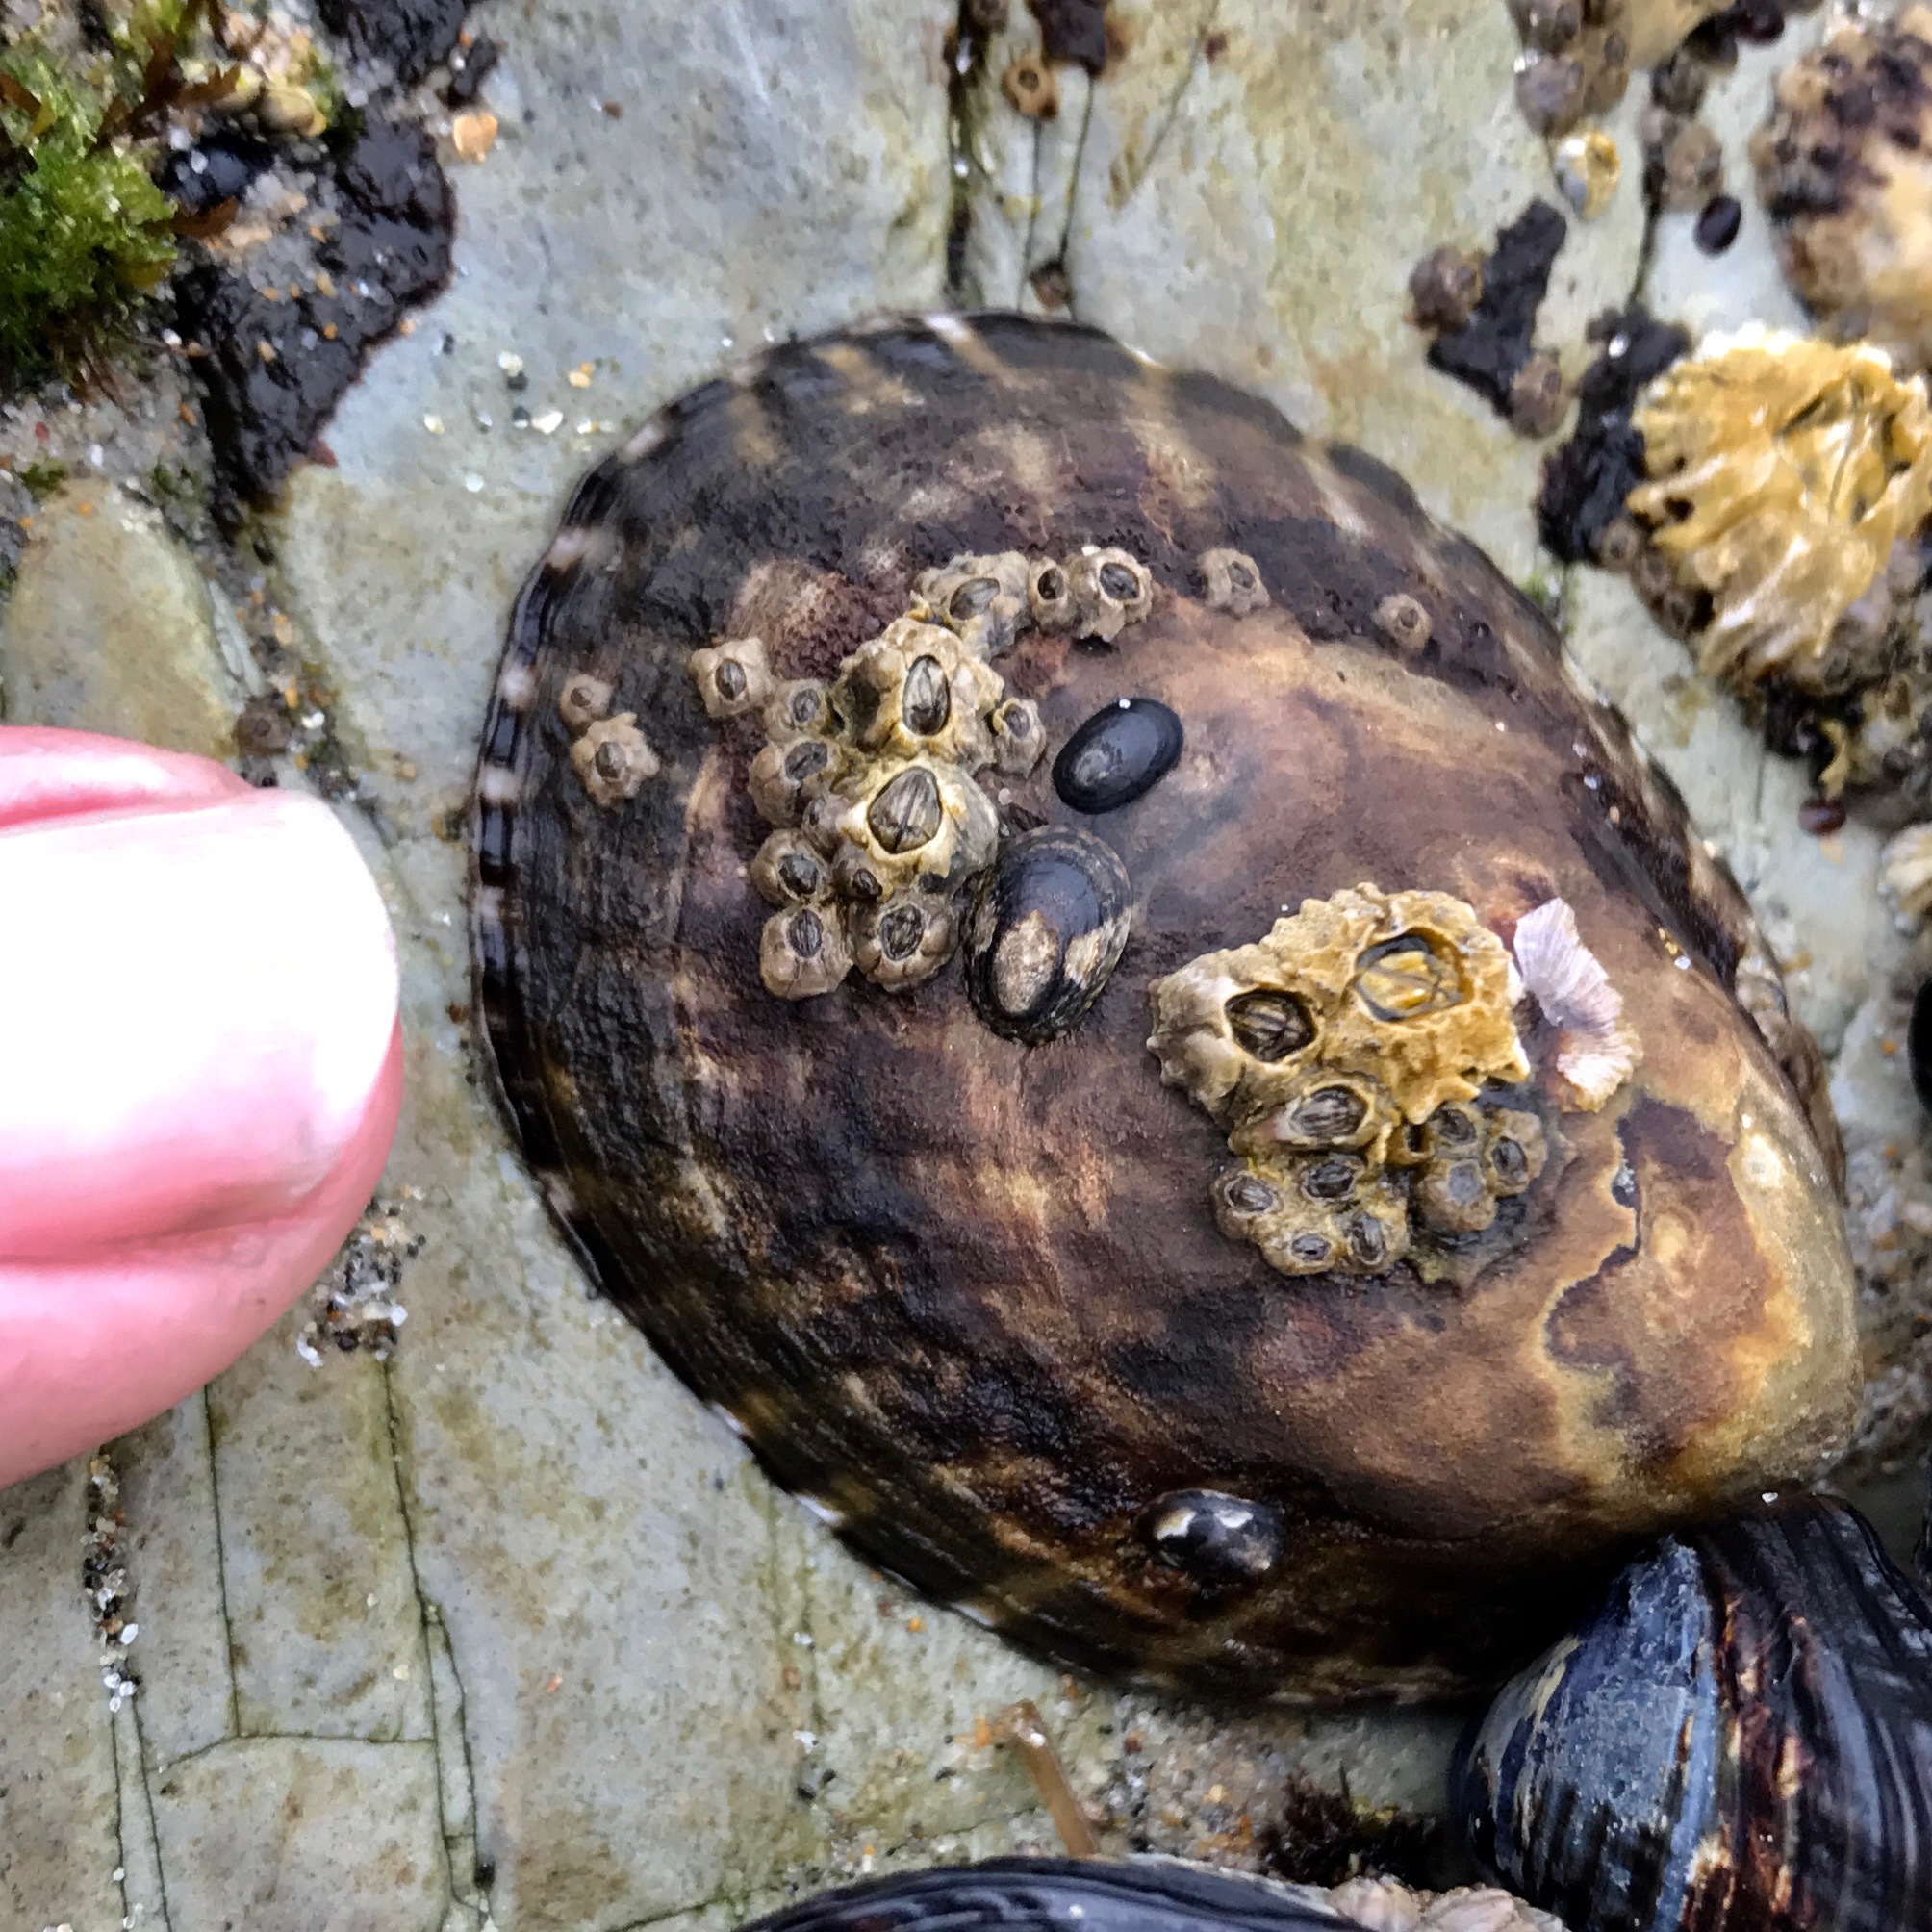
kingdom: Animalia
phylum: Mollusca
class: Gastropoda
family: Lottiidae
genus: Lottia
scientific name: Lottia gigantea
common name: Owl limpet
